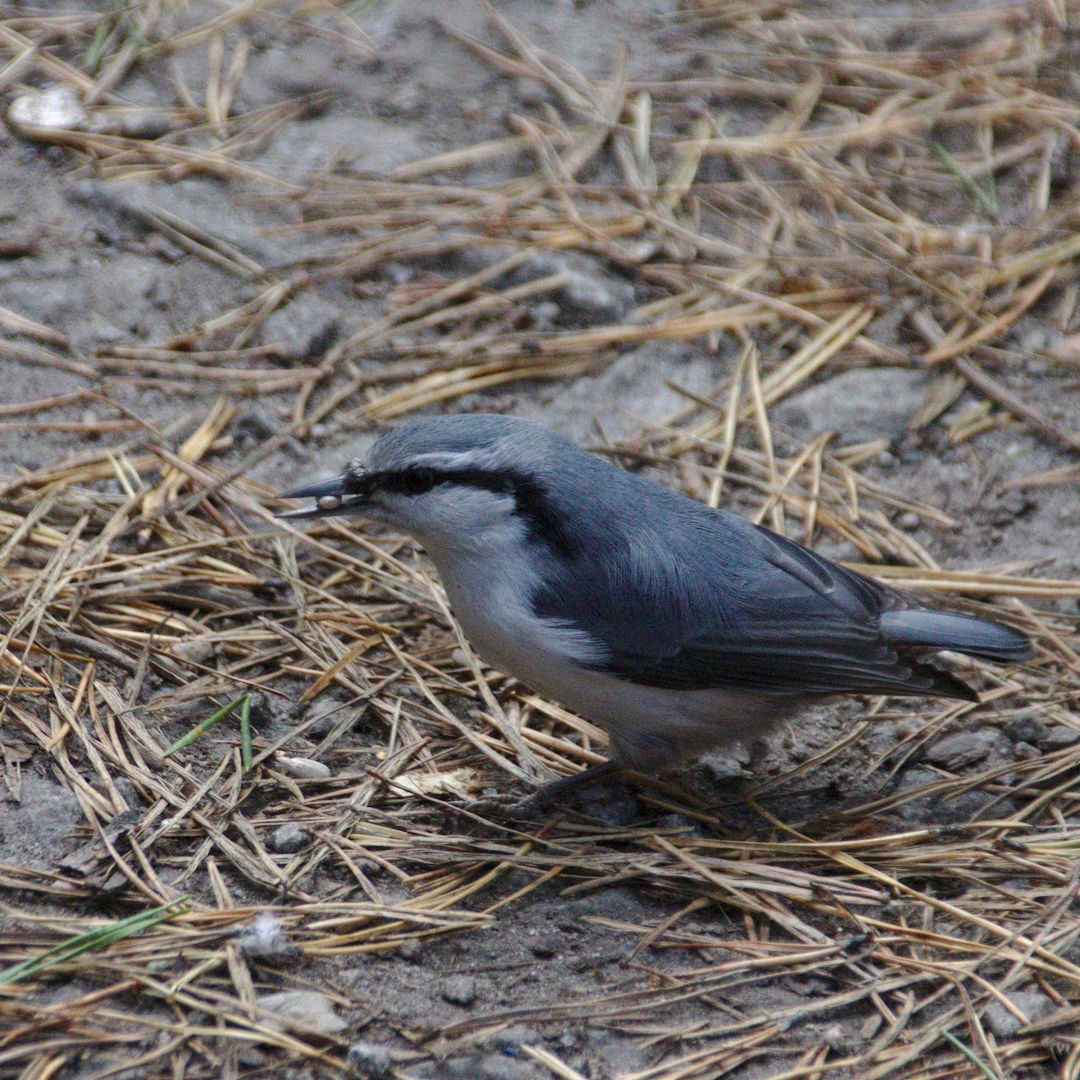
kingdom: Animalia
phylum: Chordata
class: Aves
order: Passeriformes
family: Sittidae
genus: Sitta
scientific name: Sitta europaea
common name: Eurasian nuthatch
